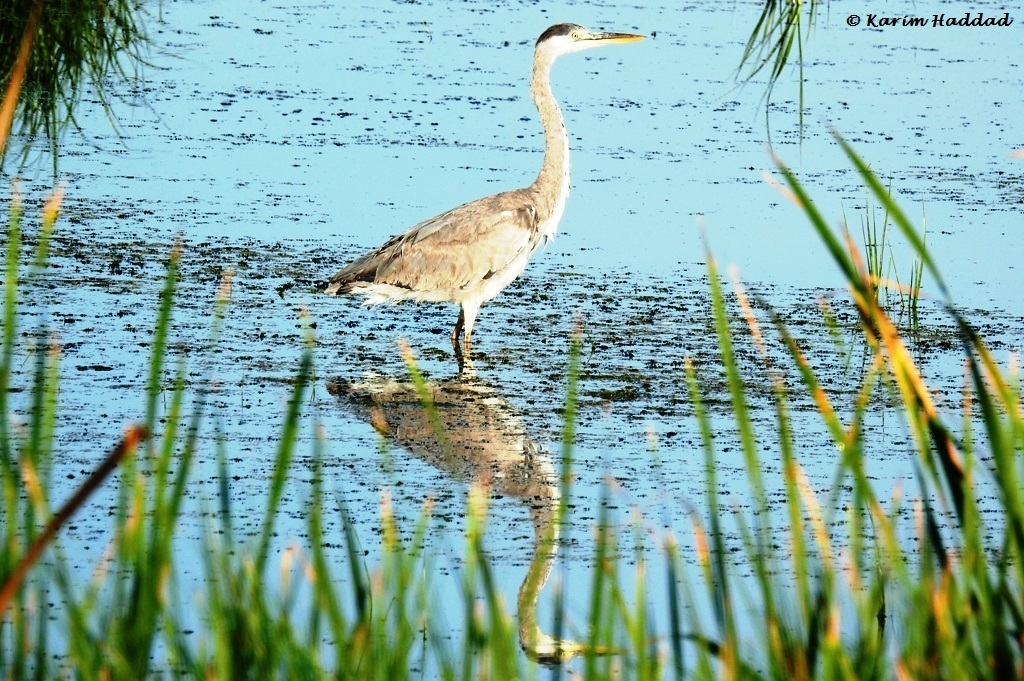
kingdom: Animalia
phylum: Chordata
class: Aves
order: Pelecaniformes
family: Ardeidae
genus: Ardea
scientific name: Ardea cinerea
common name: Grey heron
